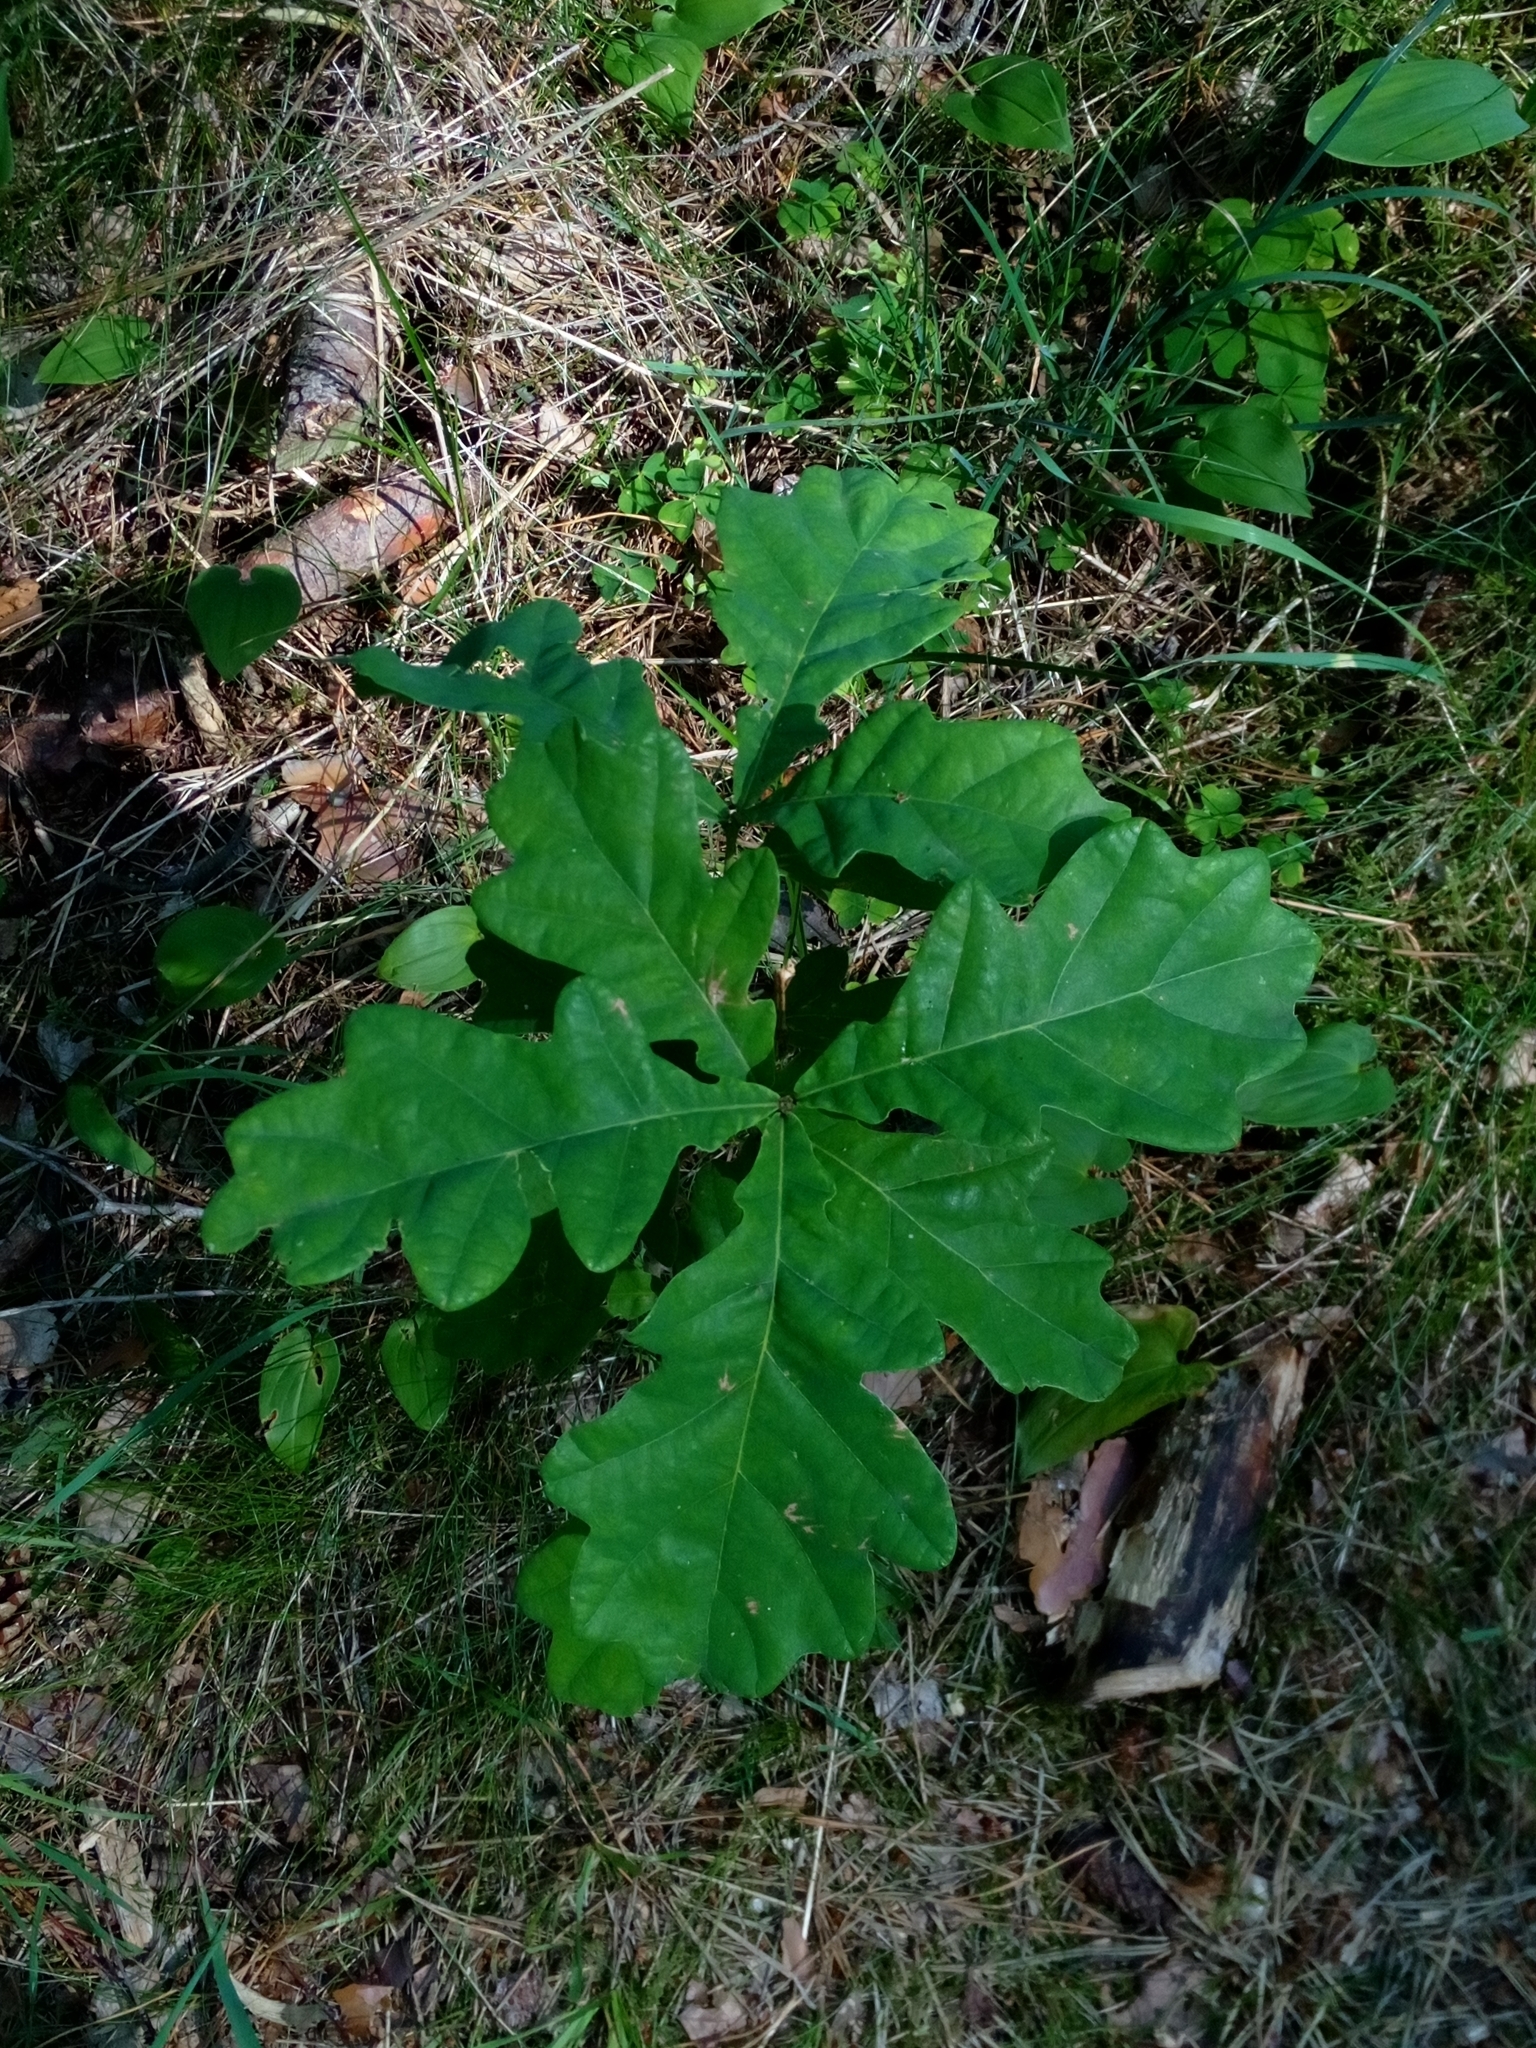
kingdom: Plantae
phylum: Tracheophyta
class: Magnoliopsida
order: Fagales
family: Fagaceae
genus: Quercus
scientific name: Quercus robur
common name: Pedunculate oak
